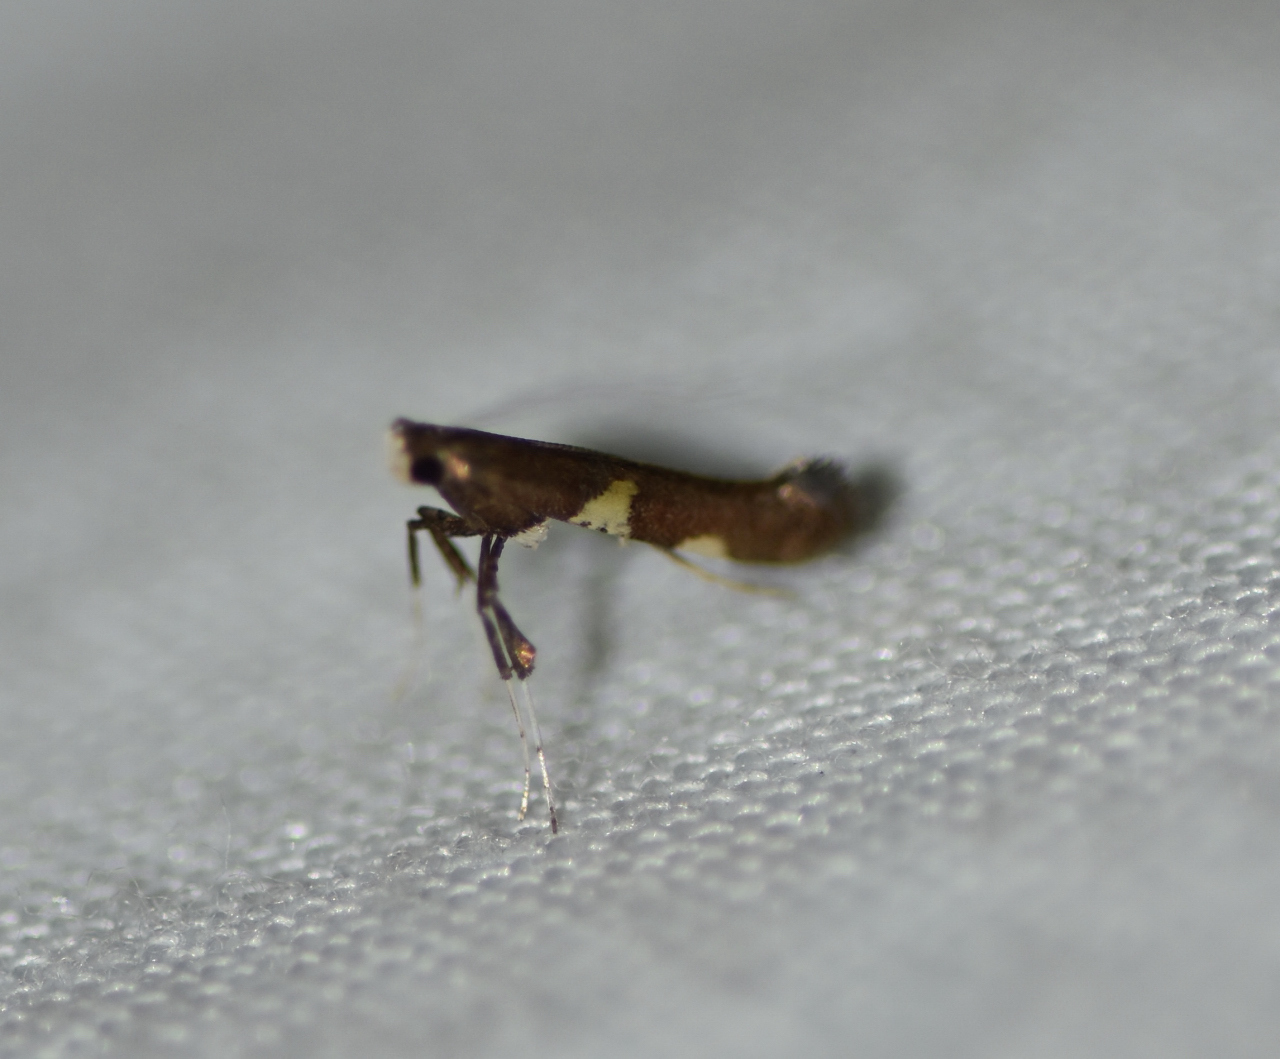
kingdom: Animalia
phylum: Arthropoda
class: Insecta
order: Lepidoptera
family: Gracillariidae
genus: Caloptilia
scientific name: Caloptilia umbratella
